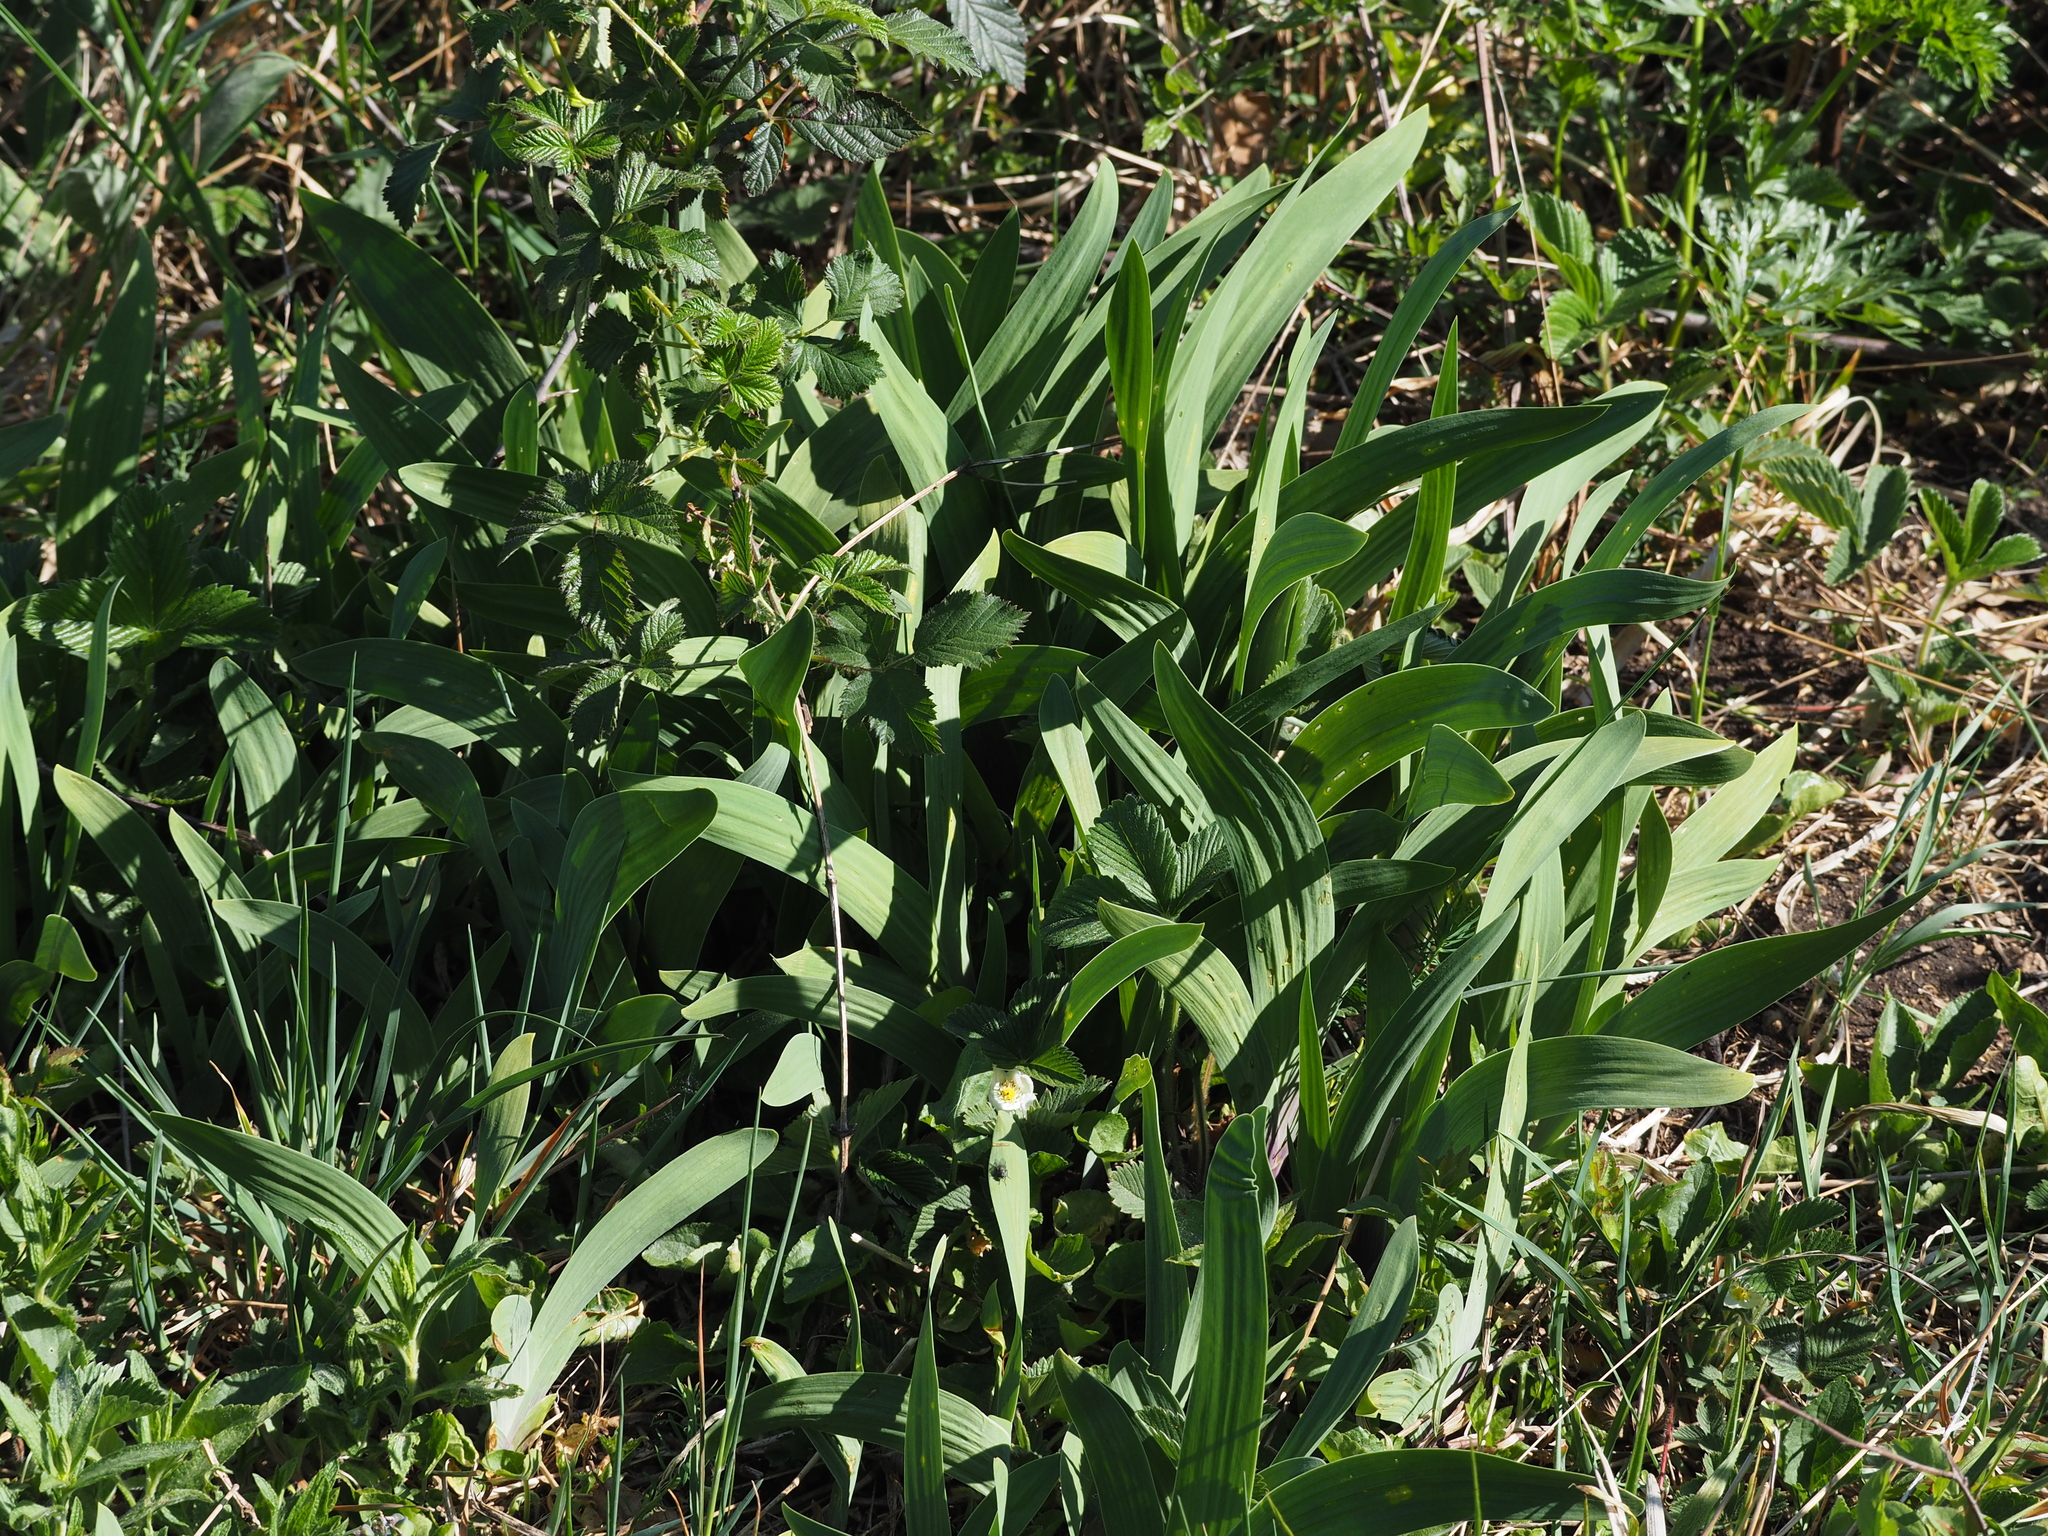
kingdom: Plantae
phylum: Tracheophyta
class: Liliopsida
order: Asparagales
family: Iridaceae
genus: Iris
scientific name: Iris variegata
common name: Hungarian iris
